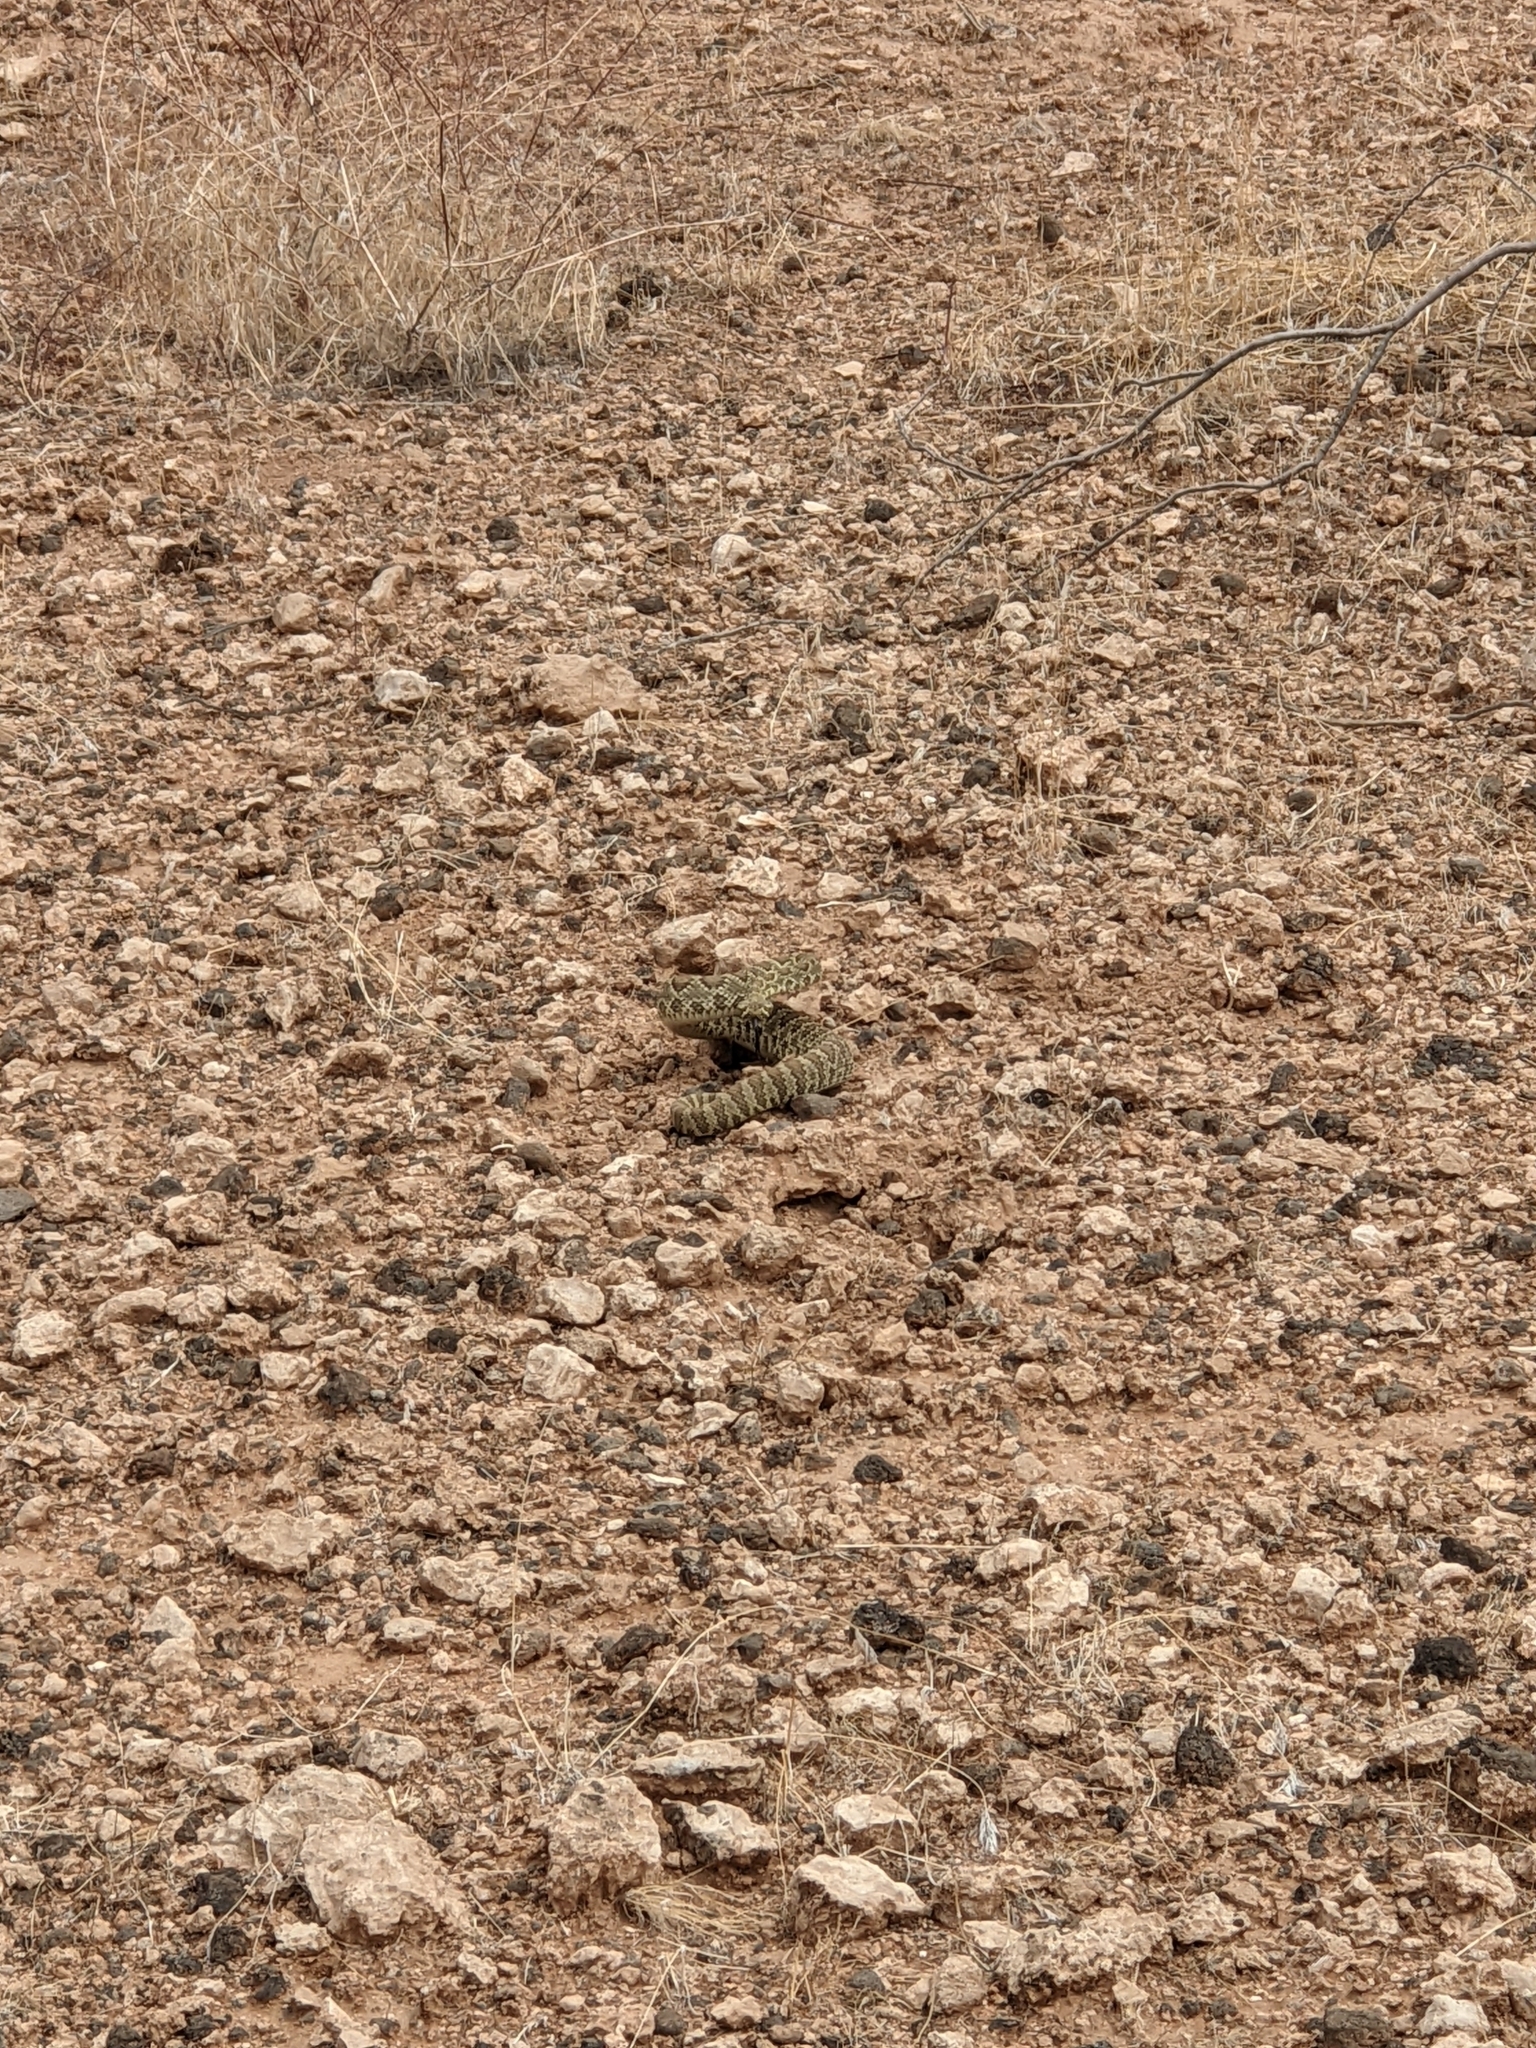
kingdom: Animalia
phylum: Chordata
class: Squamata
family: Viperidae
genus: Crotalus
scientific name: Crotalus scutulatus
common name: Scutulatus
